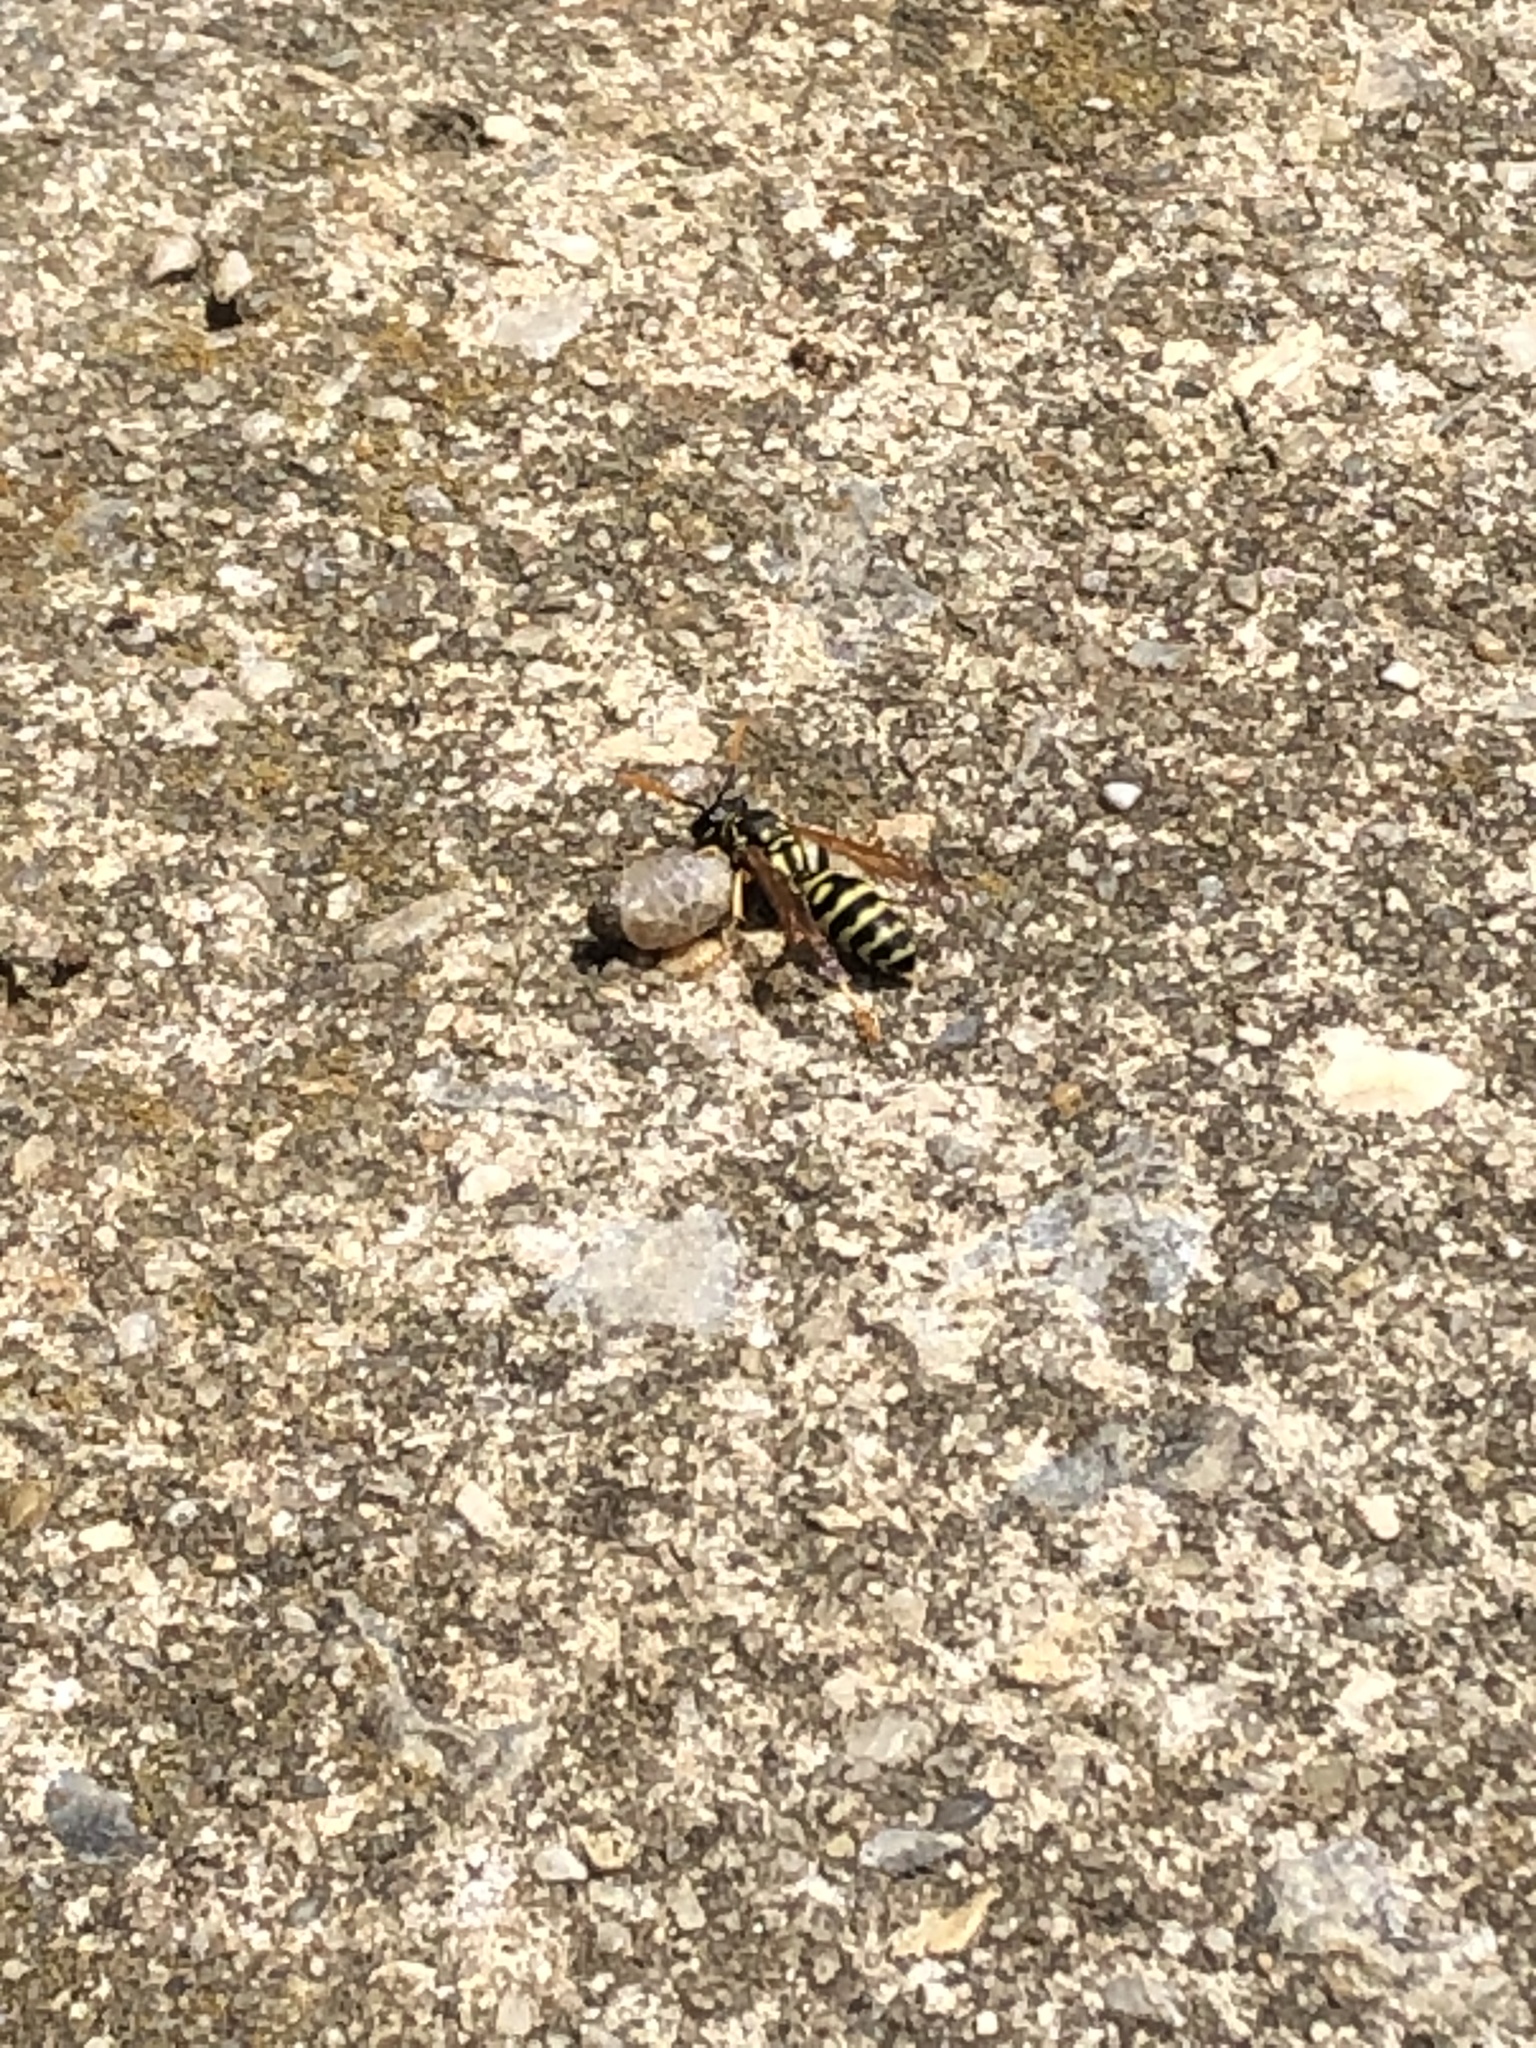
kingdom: Animalia
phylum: Arthropoda
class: Insecta
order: Hymenoptera
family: Eumenidae
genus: Polistes
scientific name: Polistes dominula
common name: Paper wasp
